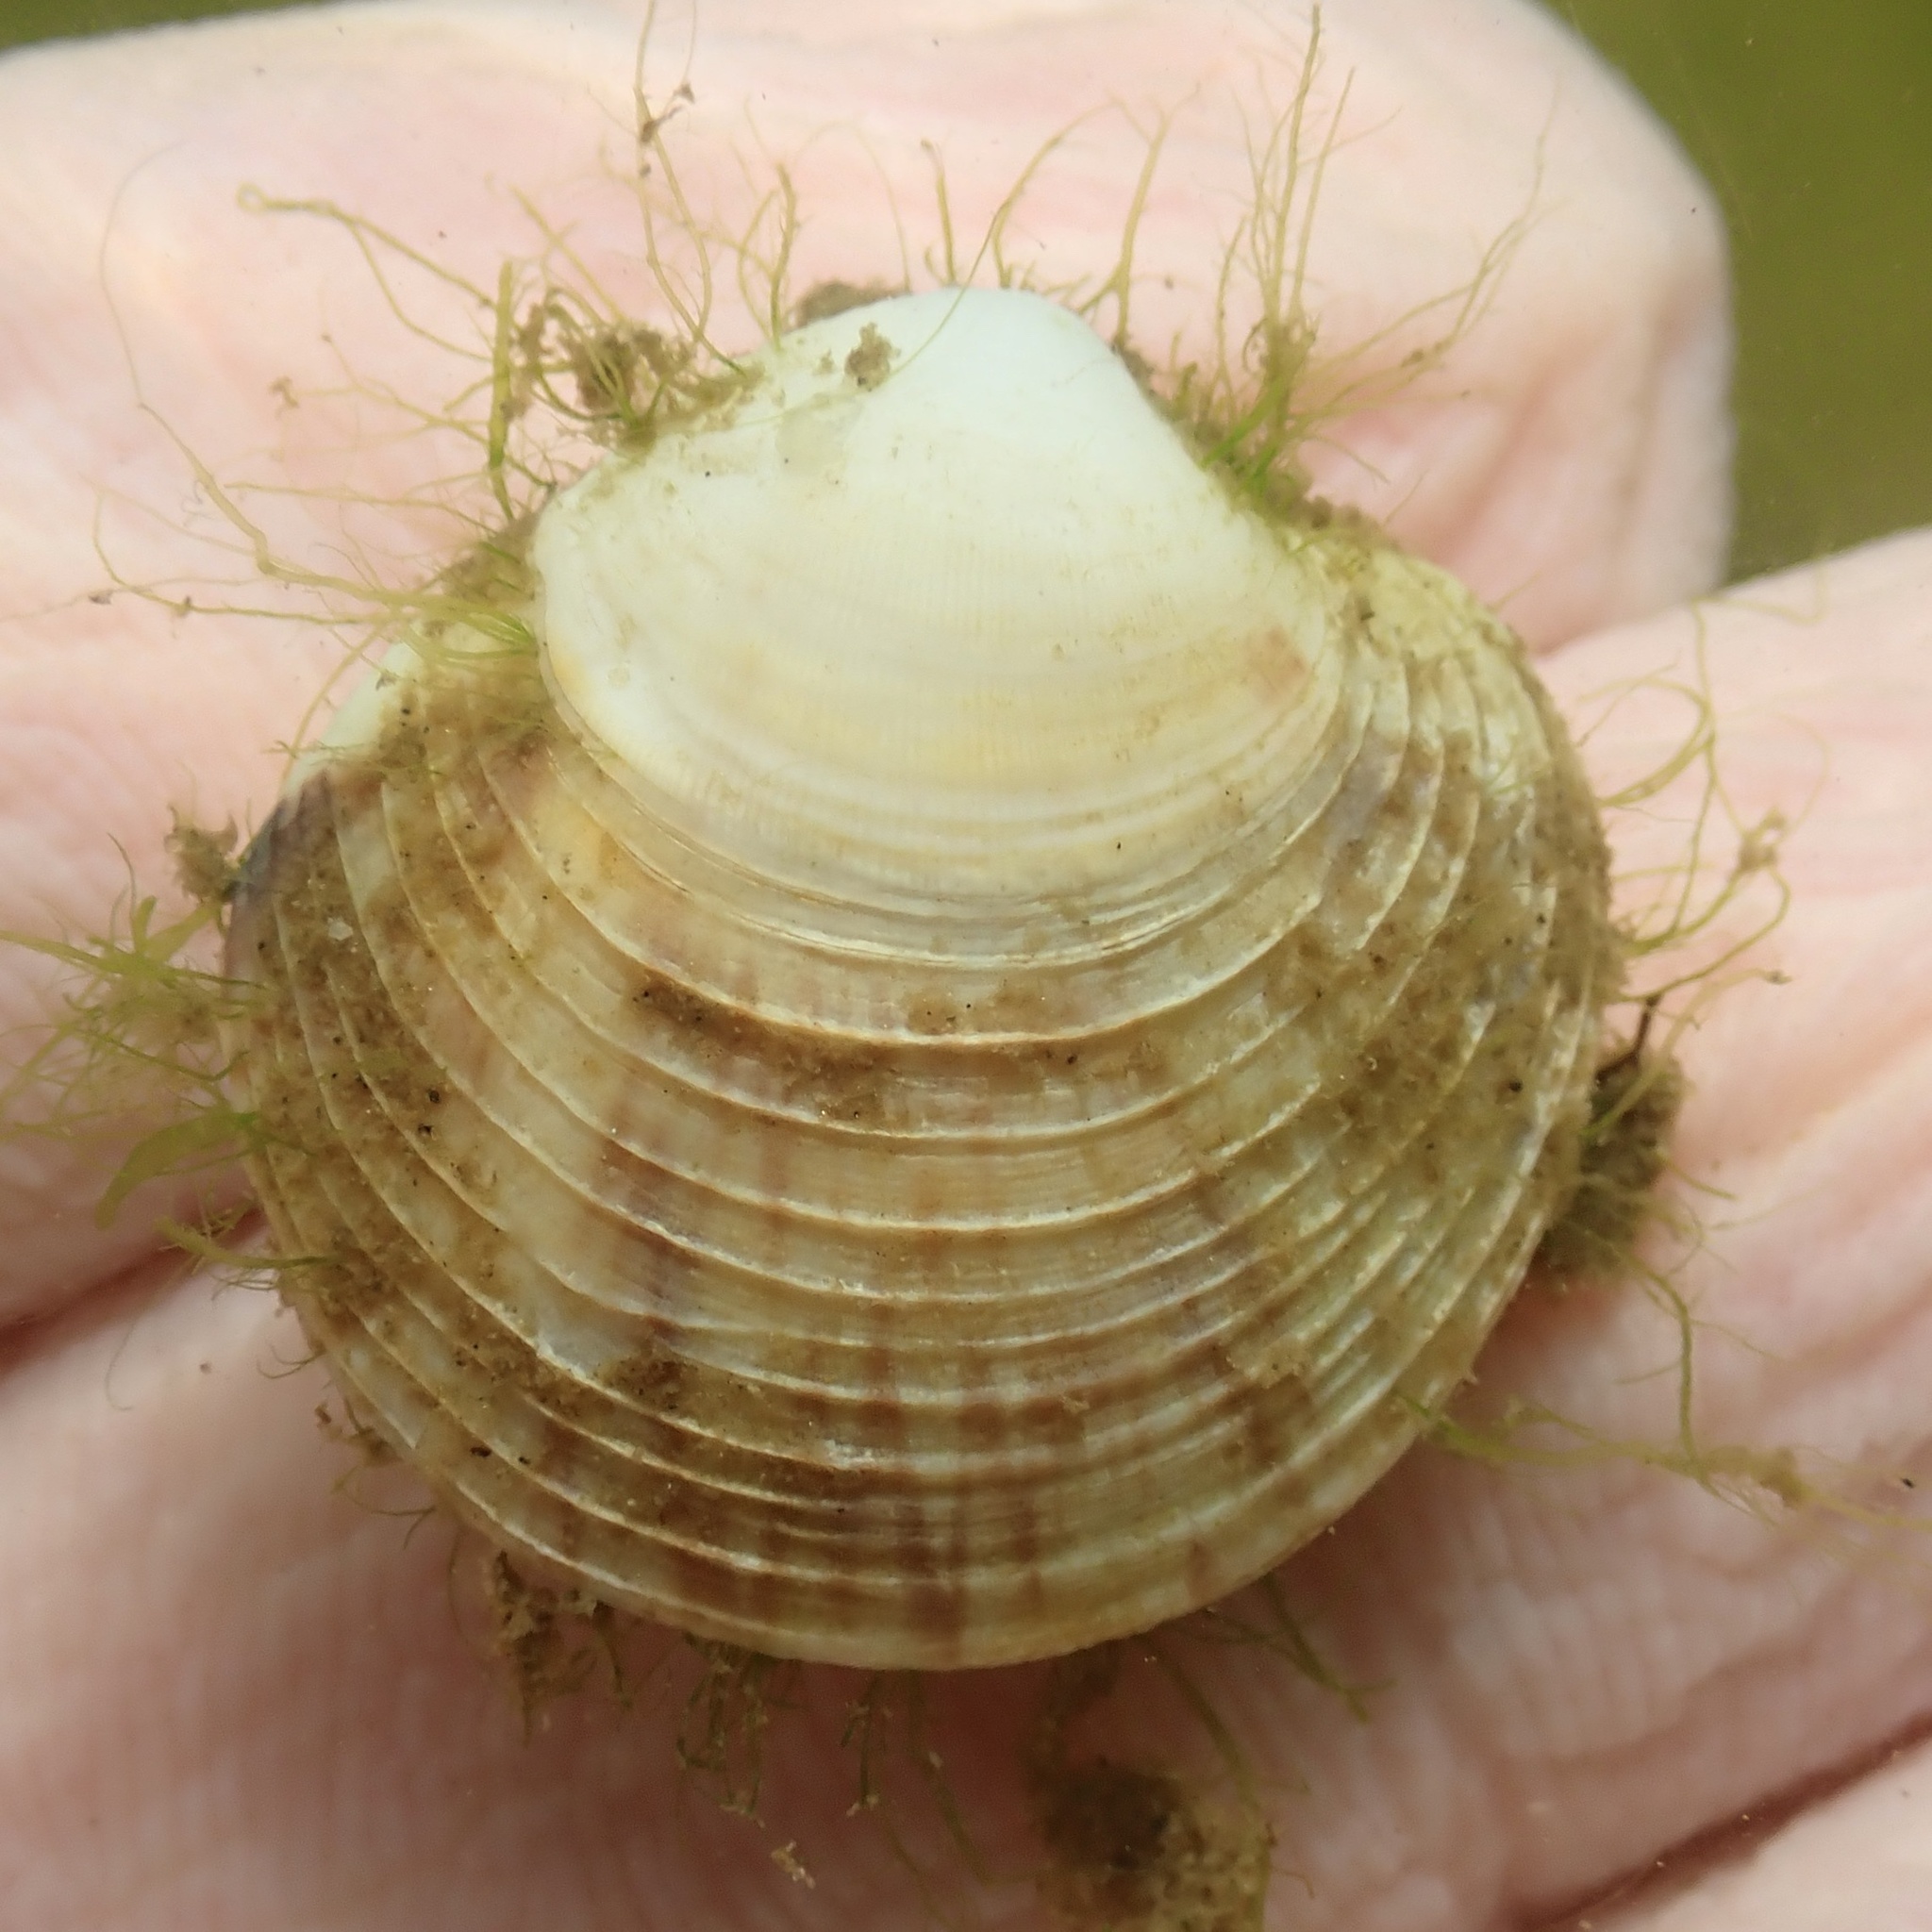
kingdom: Animalia
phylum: Mollusca
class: Bivalvia
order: Venerida
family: Veneridae
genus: Mercenaria
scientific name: Mercenaria mercenaria
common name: American hard-shelled clam
